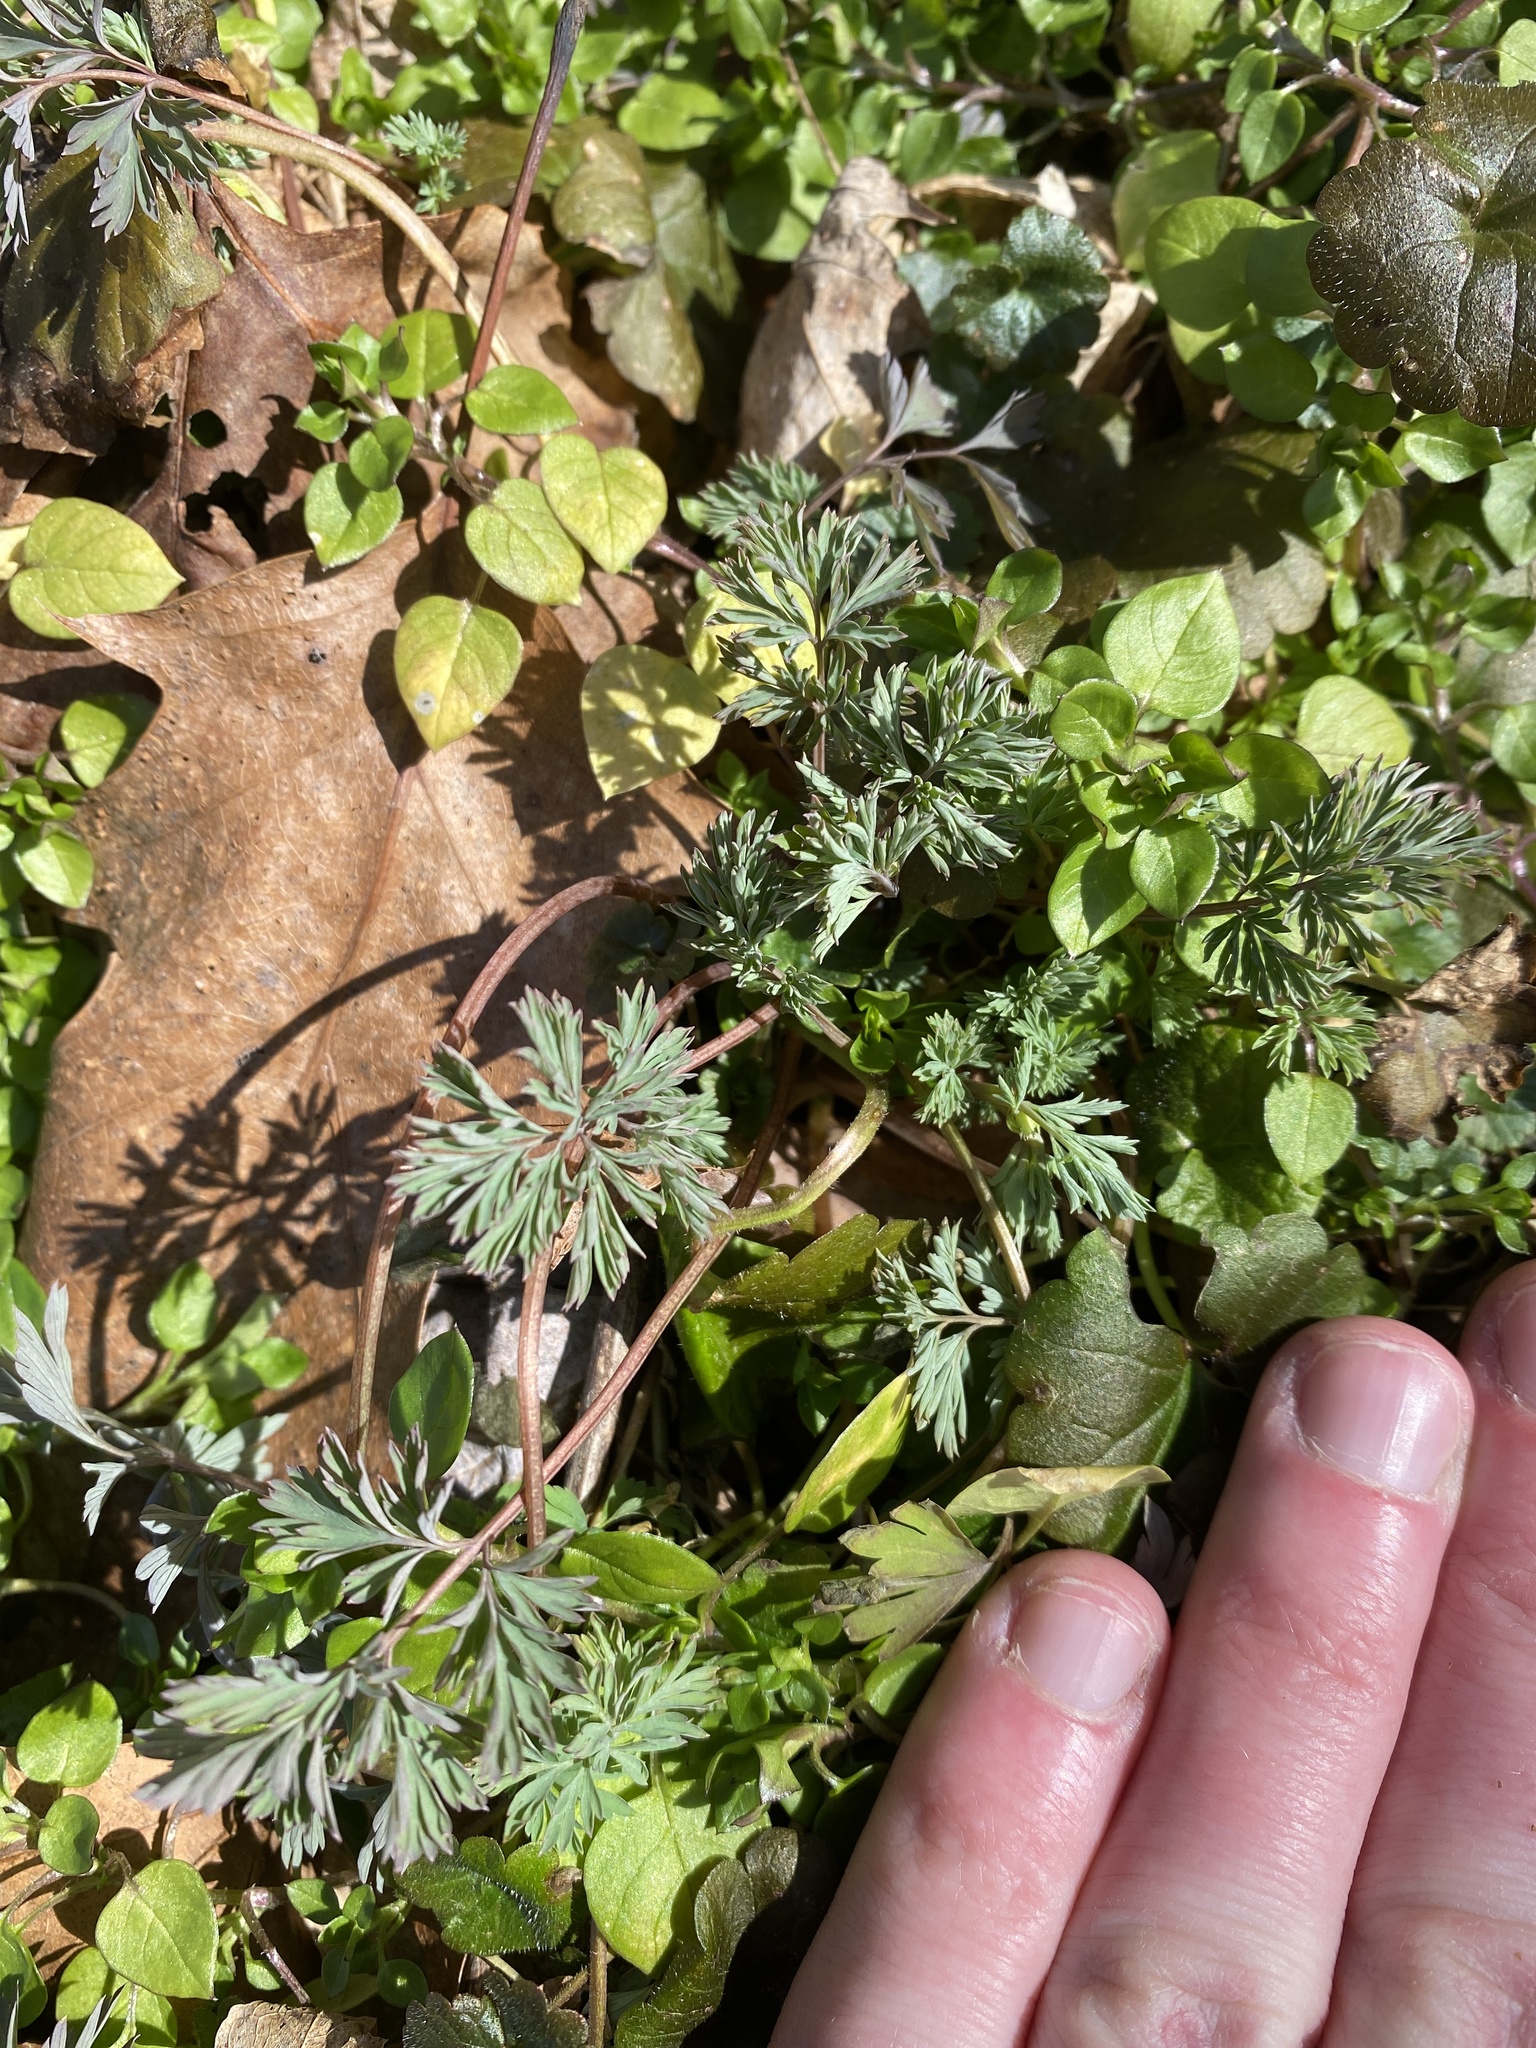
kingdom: Plantae
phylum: Tracheophyta
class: Magnoliopsida
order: Ranunculales
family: Papaveraceae
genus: Corydalis
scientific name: Corydalis flavula
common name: Yellow corydalis
